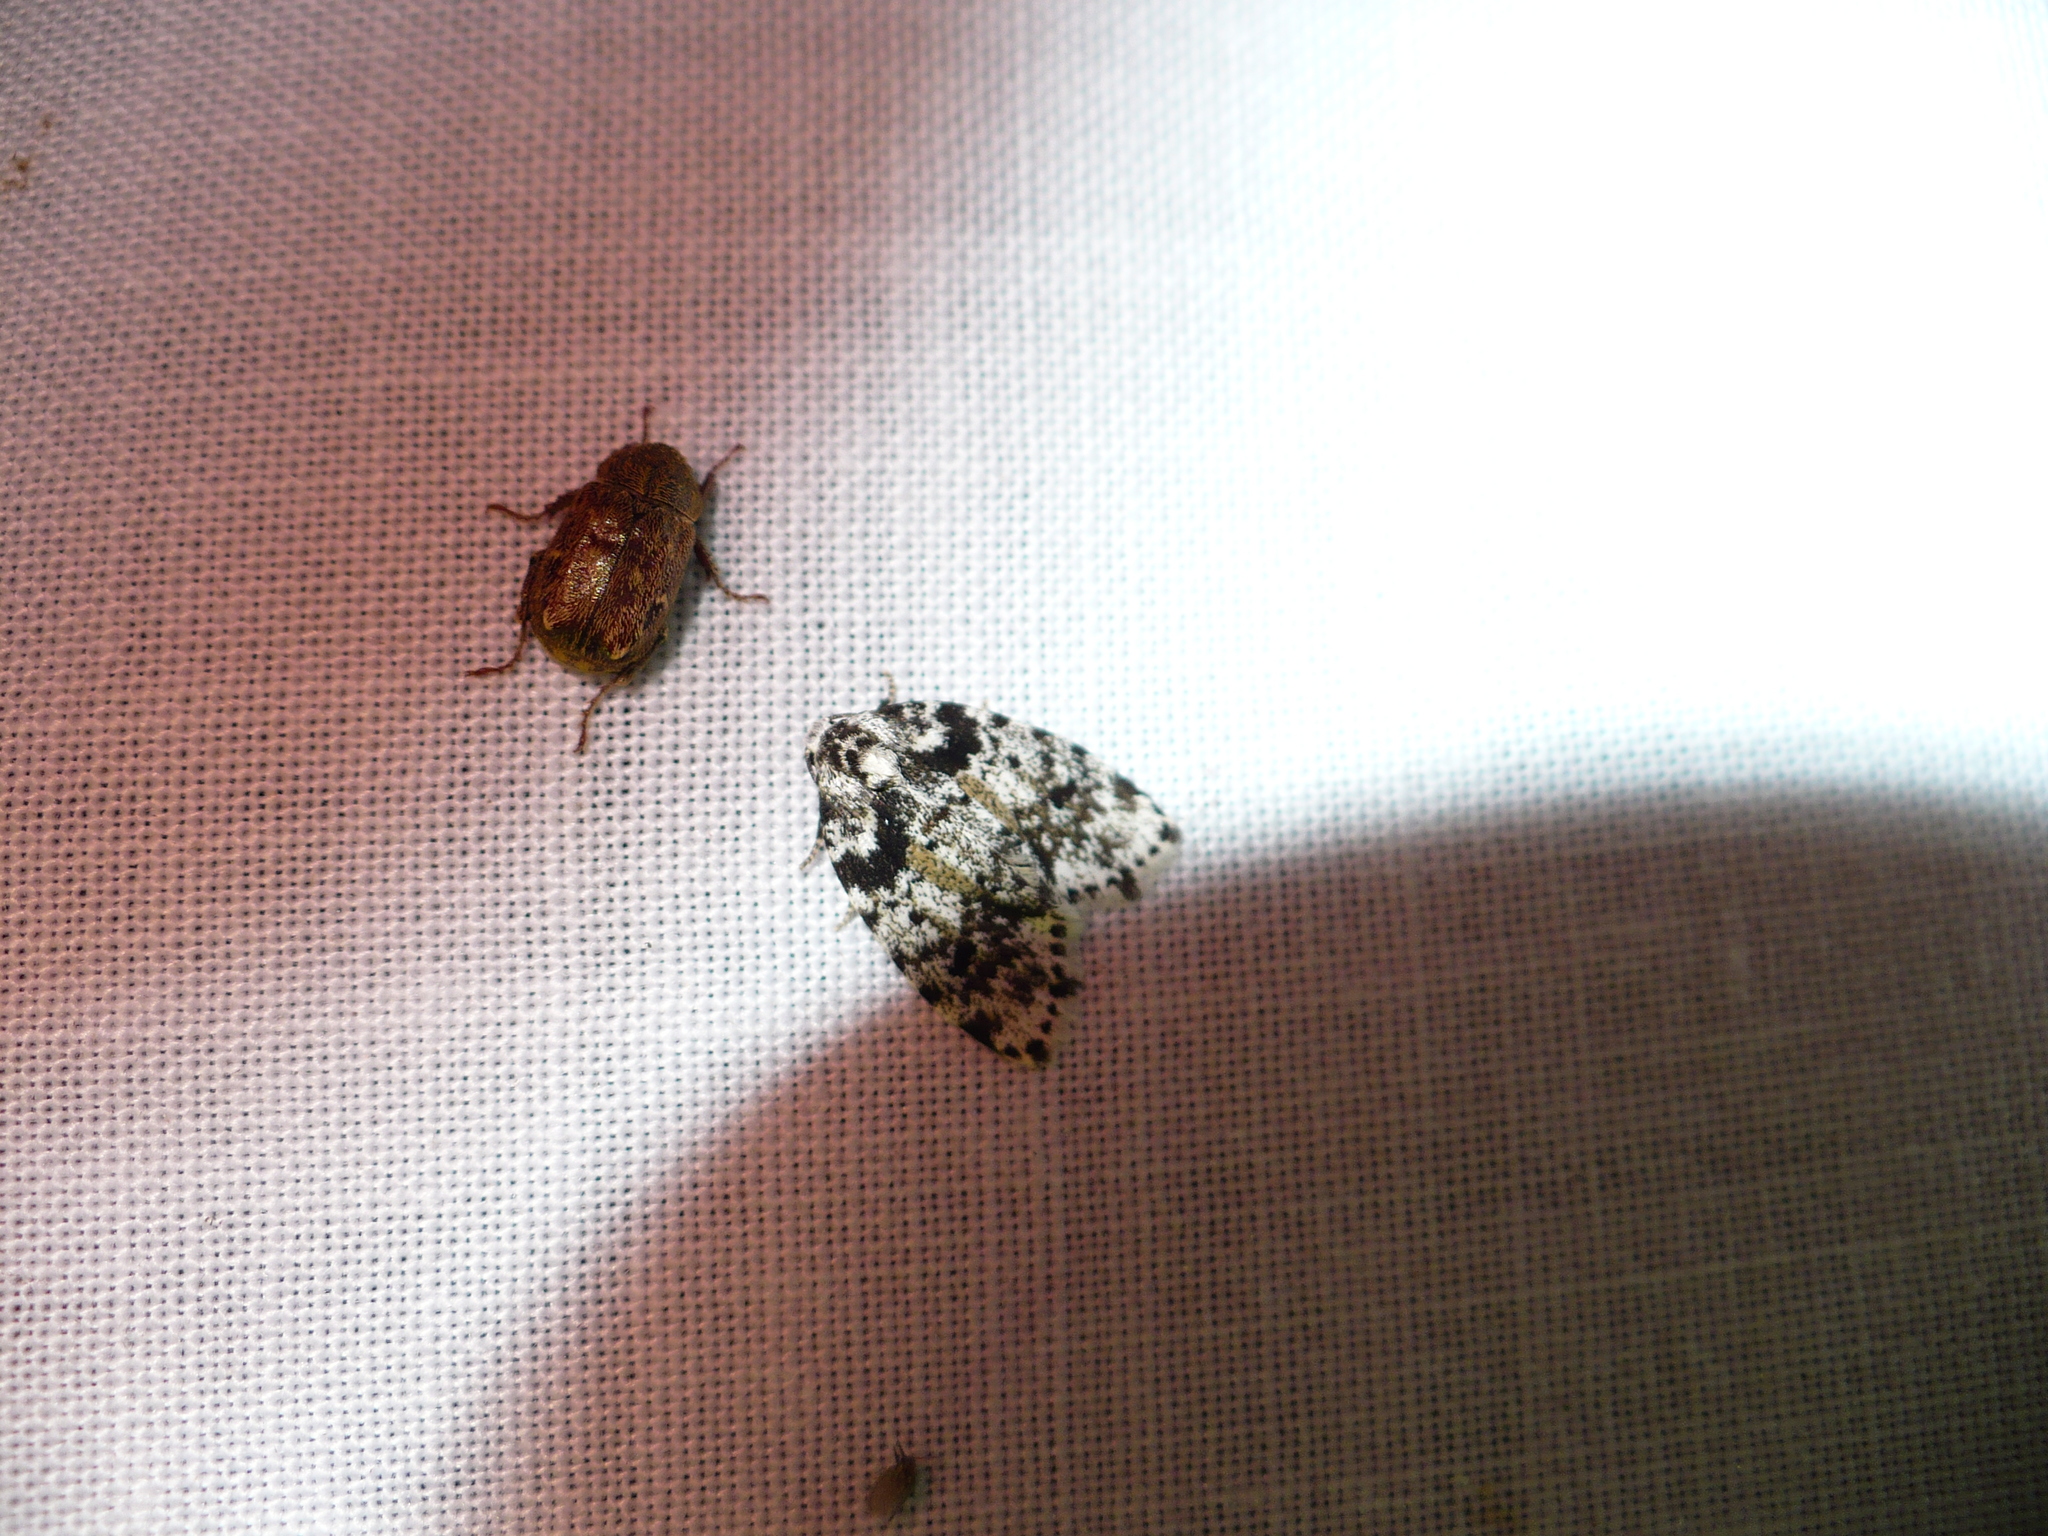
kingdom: Animalia
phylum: Arthropoda
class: Insecta
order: Lepidoptera
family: Erebidae
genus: Clemensia
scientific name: Clemensia cincinnata
